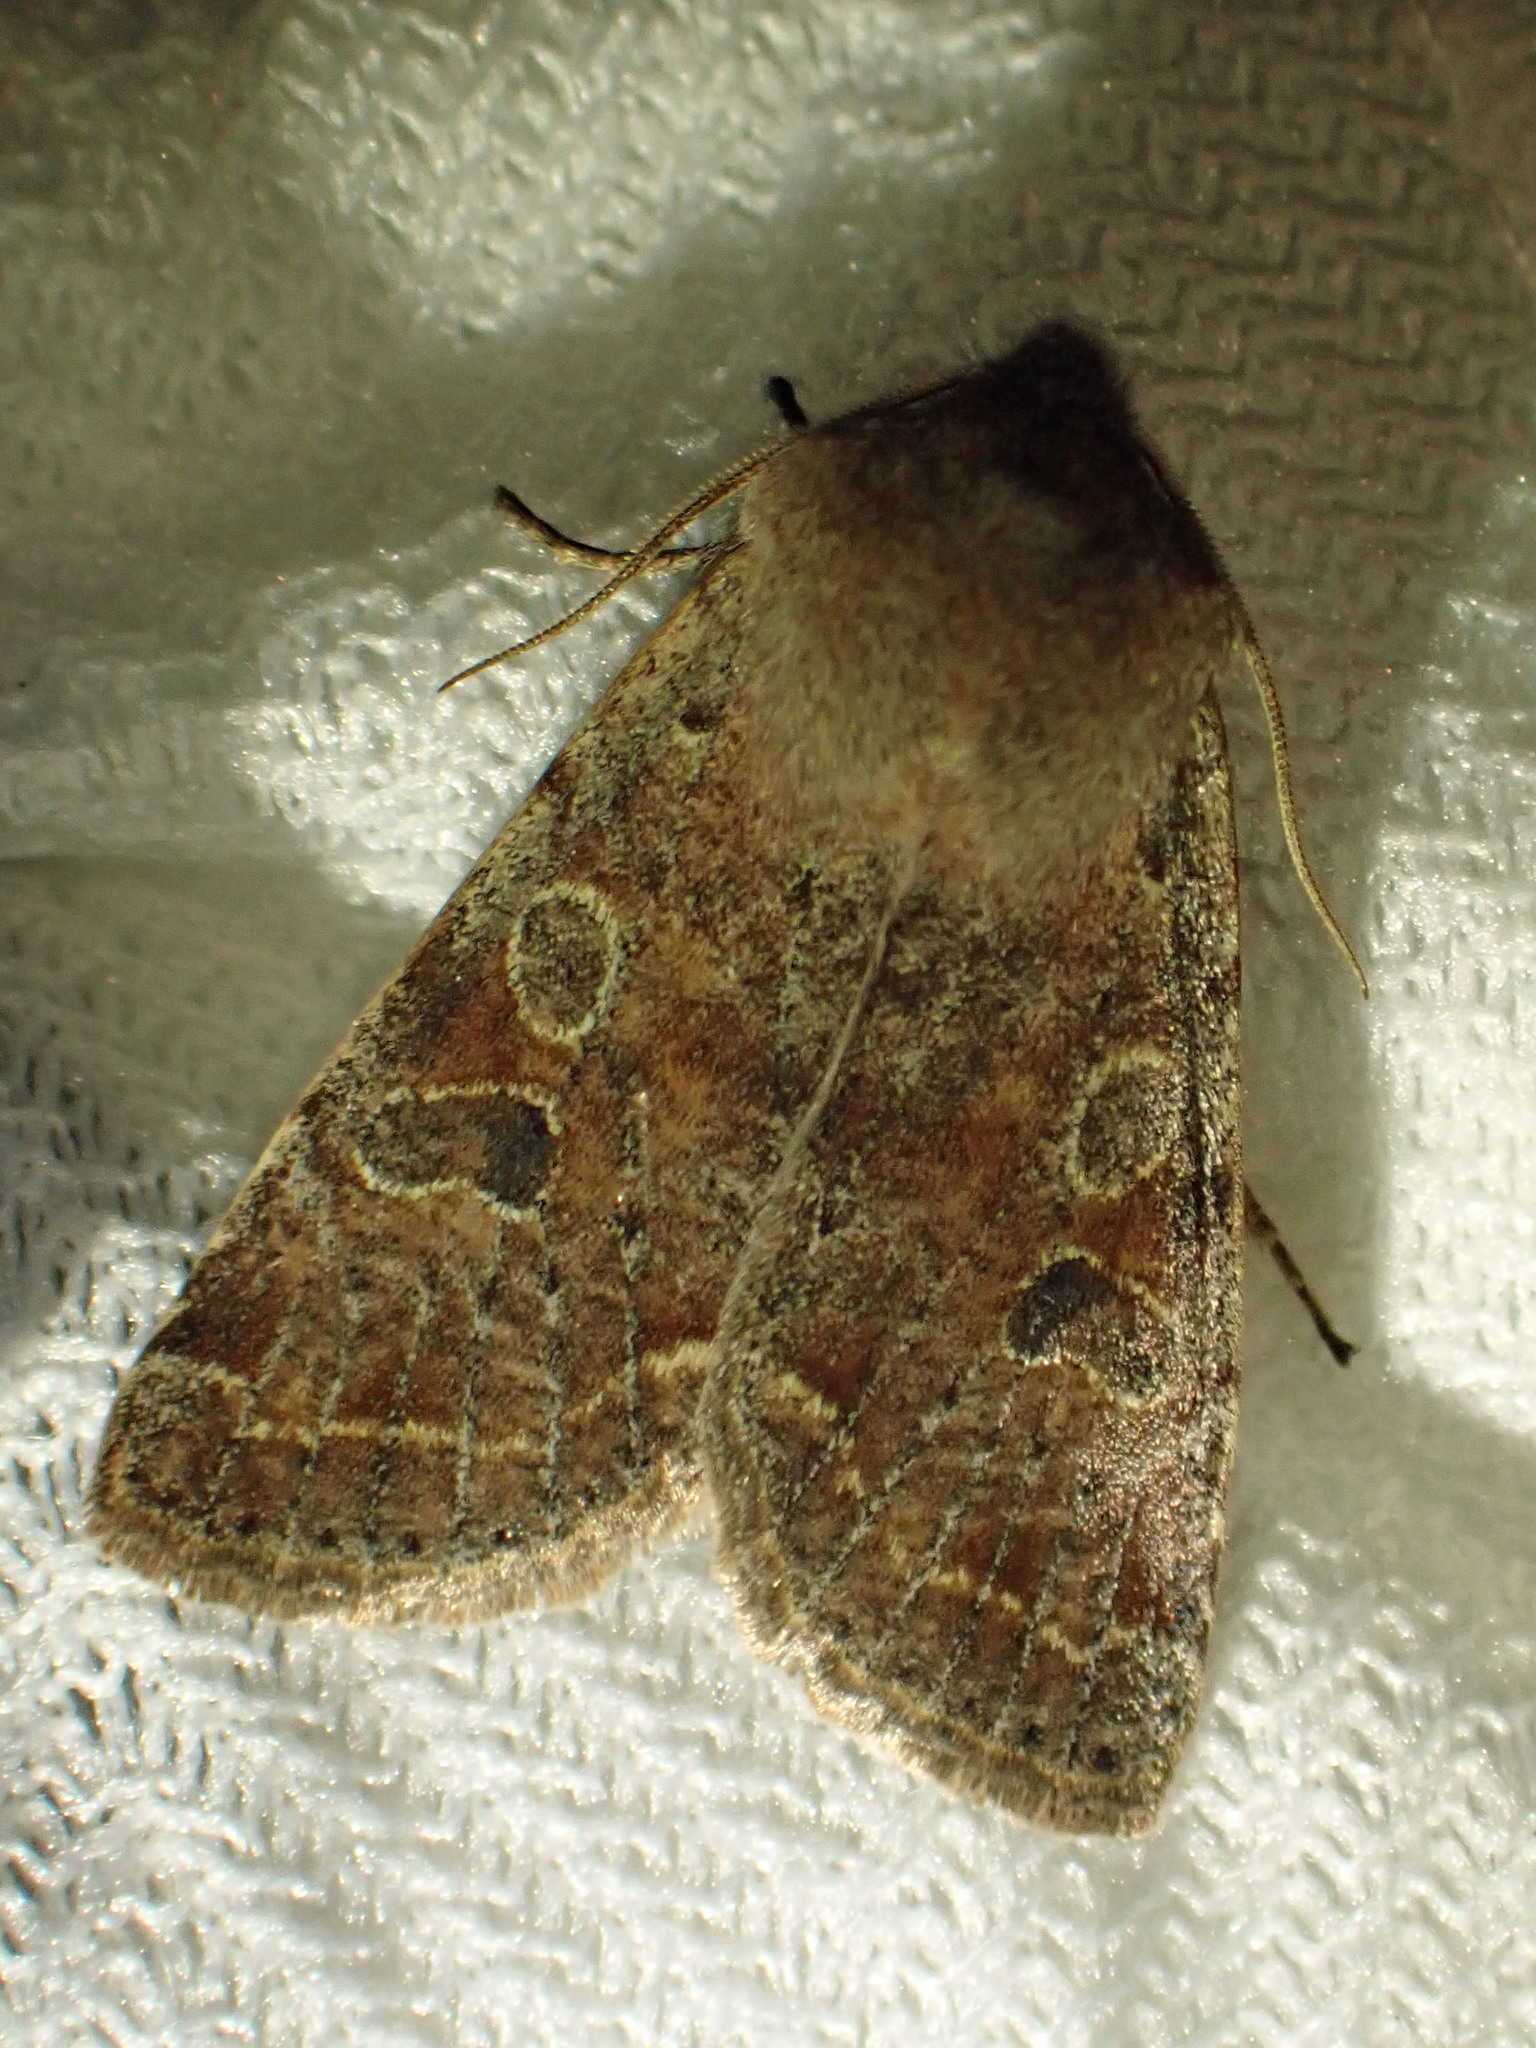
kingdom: Animalia
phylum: Arthropoda
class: Insecta
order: Lepidoptera
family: Noctuidae
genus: Orthosia
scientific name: Orthosia hibisci
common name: Green fruitworm
